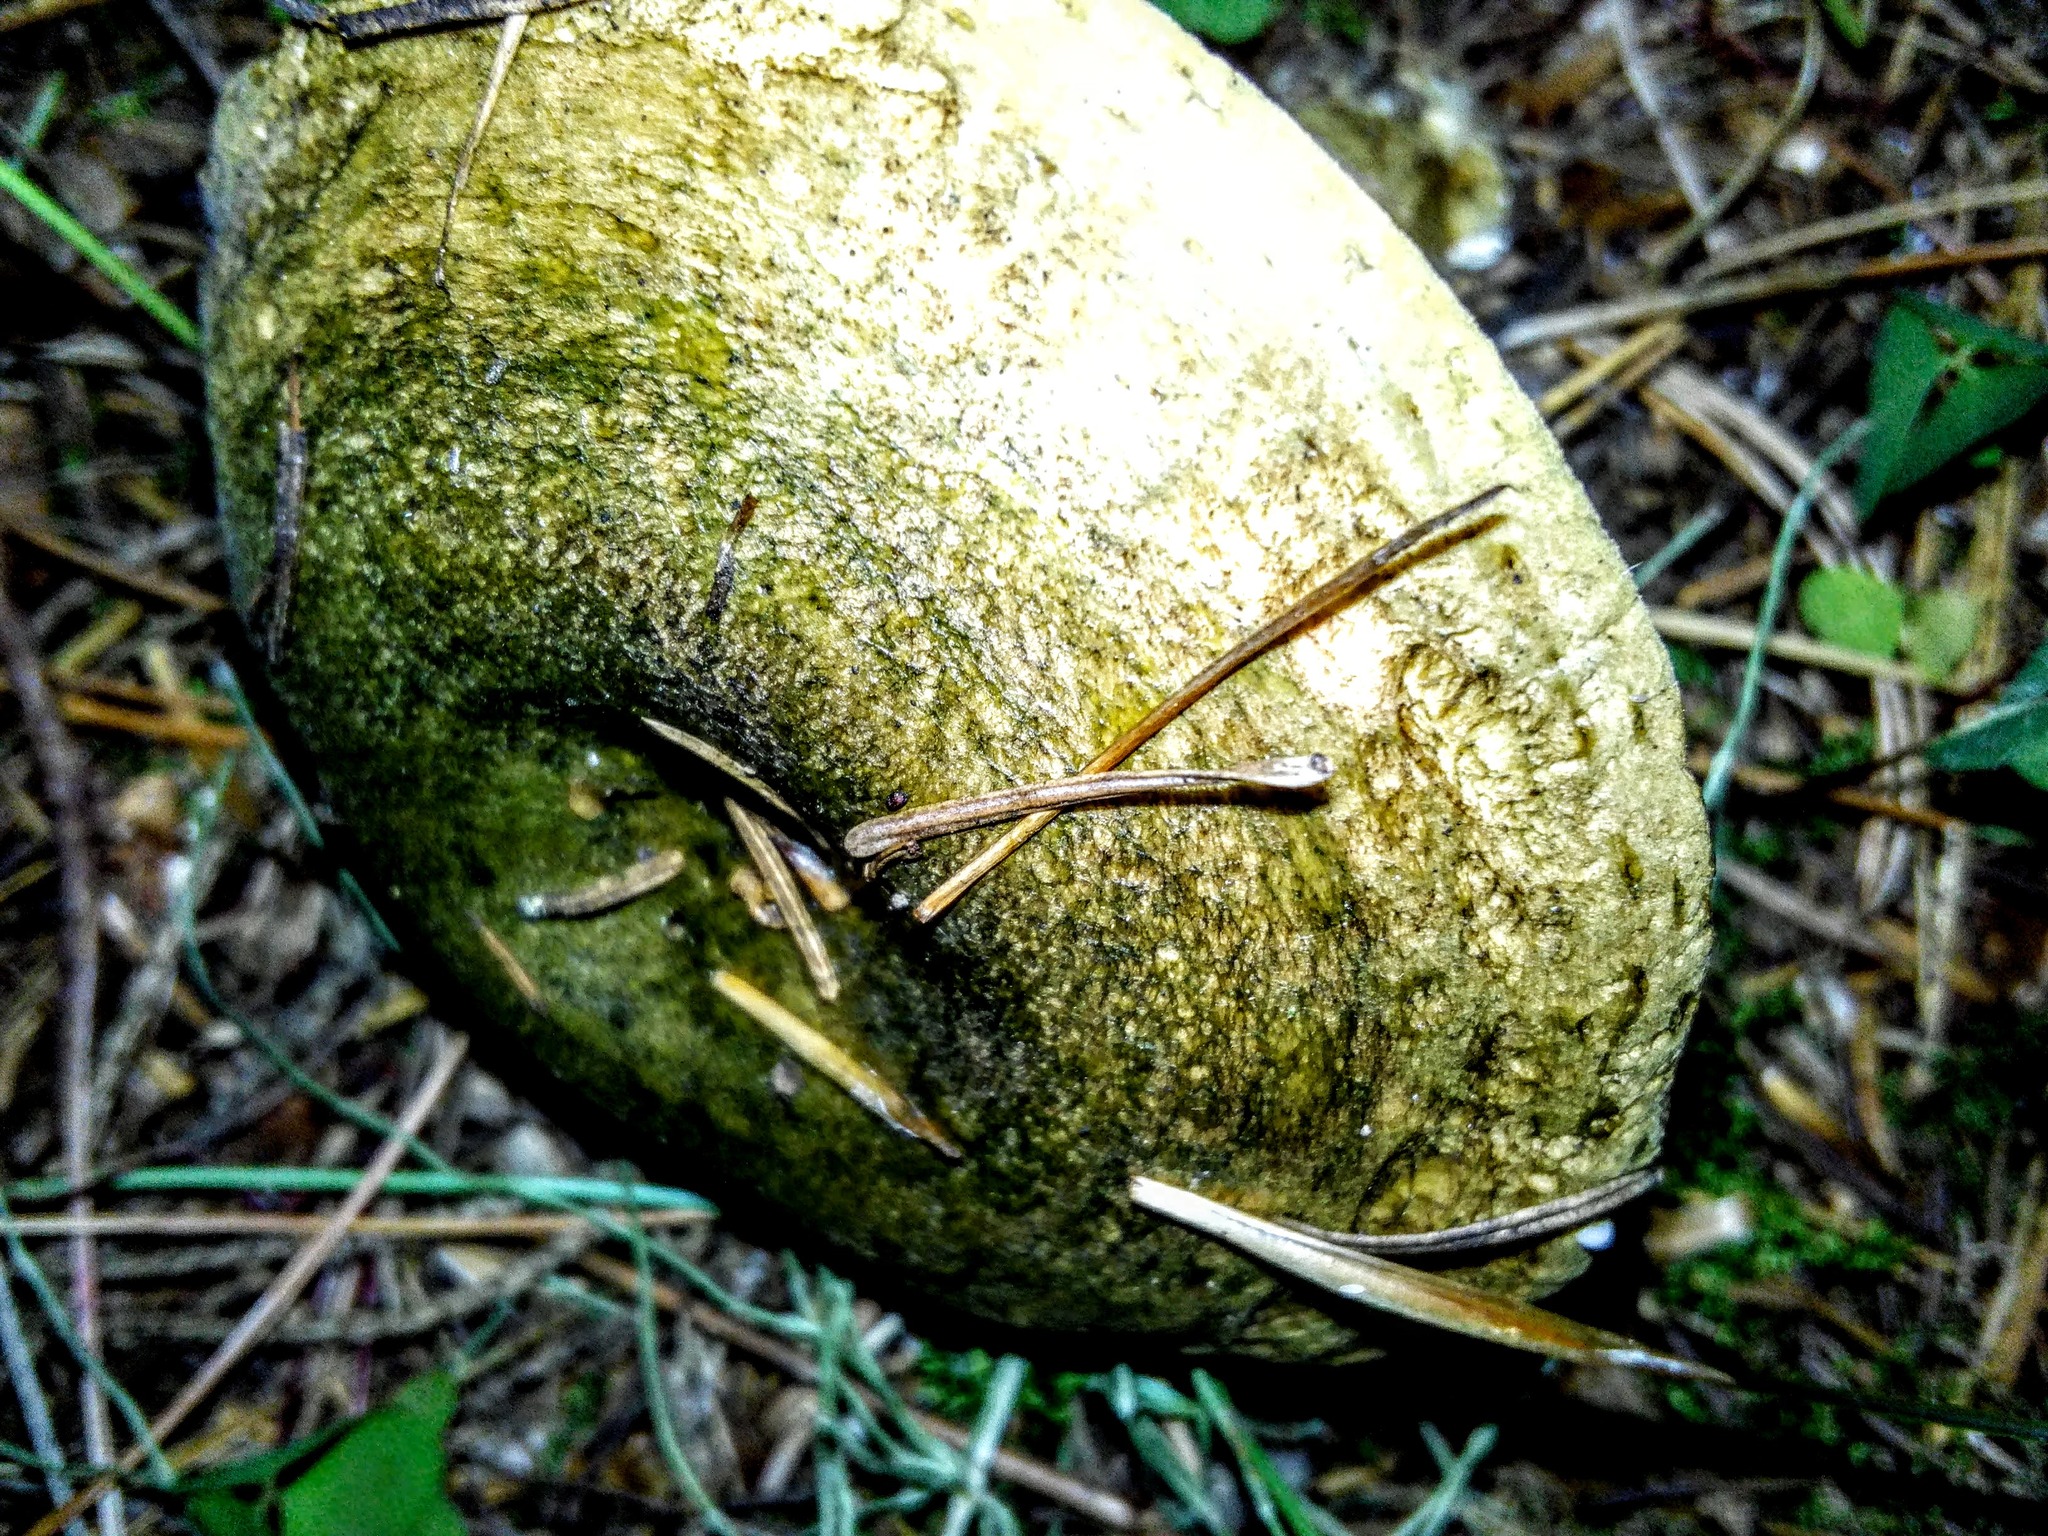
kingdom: Fungi
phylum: Basidiomycota
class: Agaricomycetes
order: Russulales
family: Russulaceae
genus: Lactarius
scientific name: Lactarius turpis
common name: Ugly milk-cap
